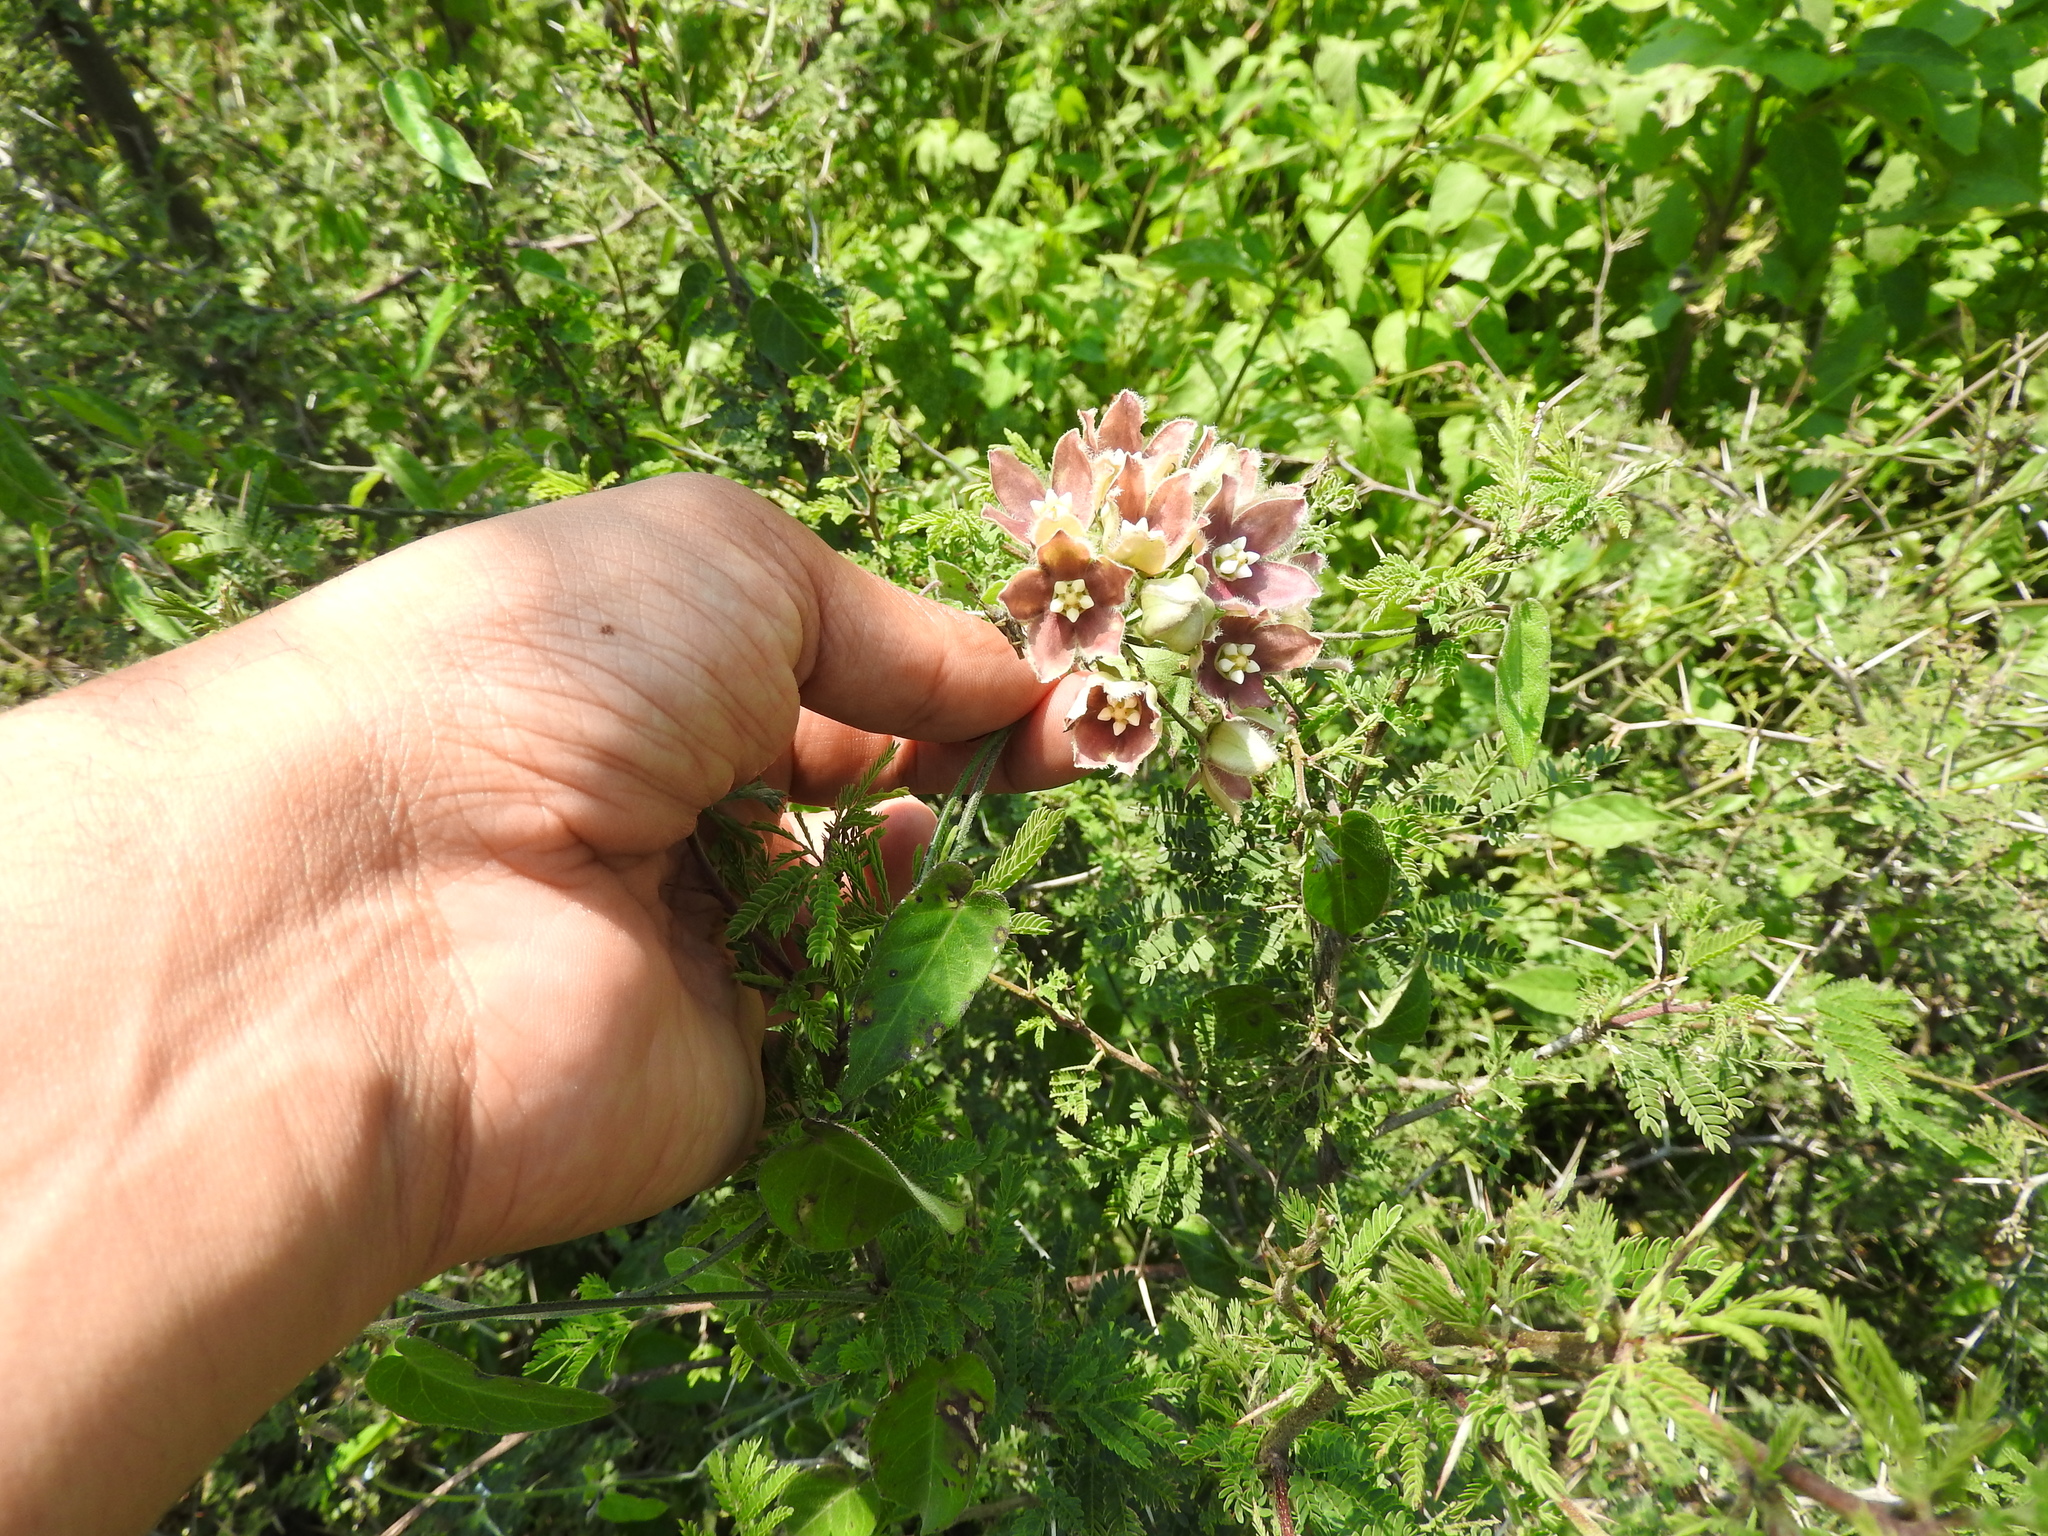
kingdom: Plantae
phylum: Tracheophyta
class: Magnoliopsida
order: Gentianales
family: Apocynaceae
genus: Funastrum
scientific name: Funastrum elegans
